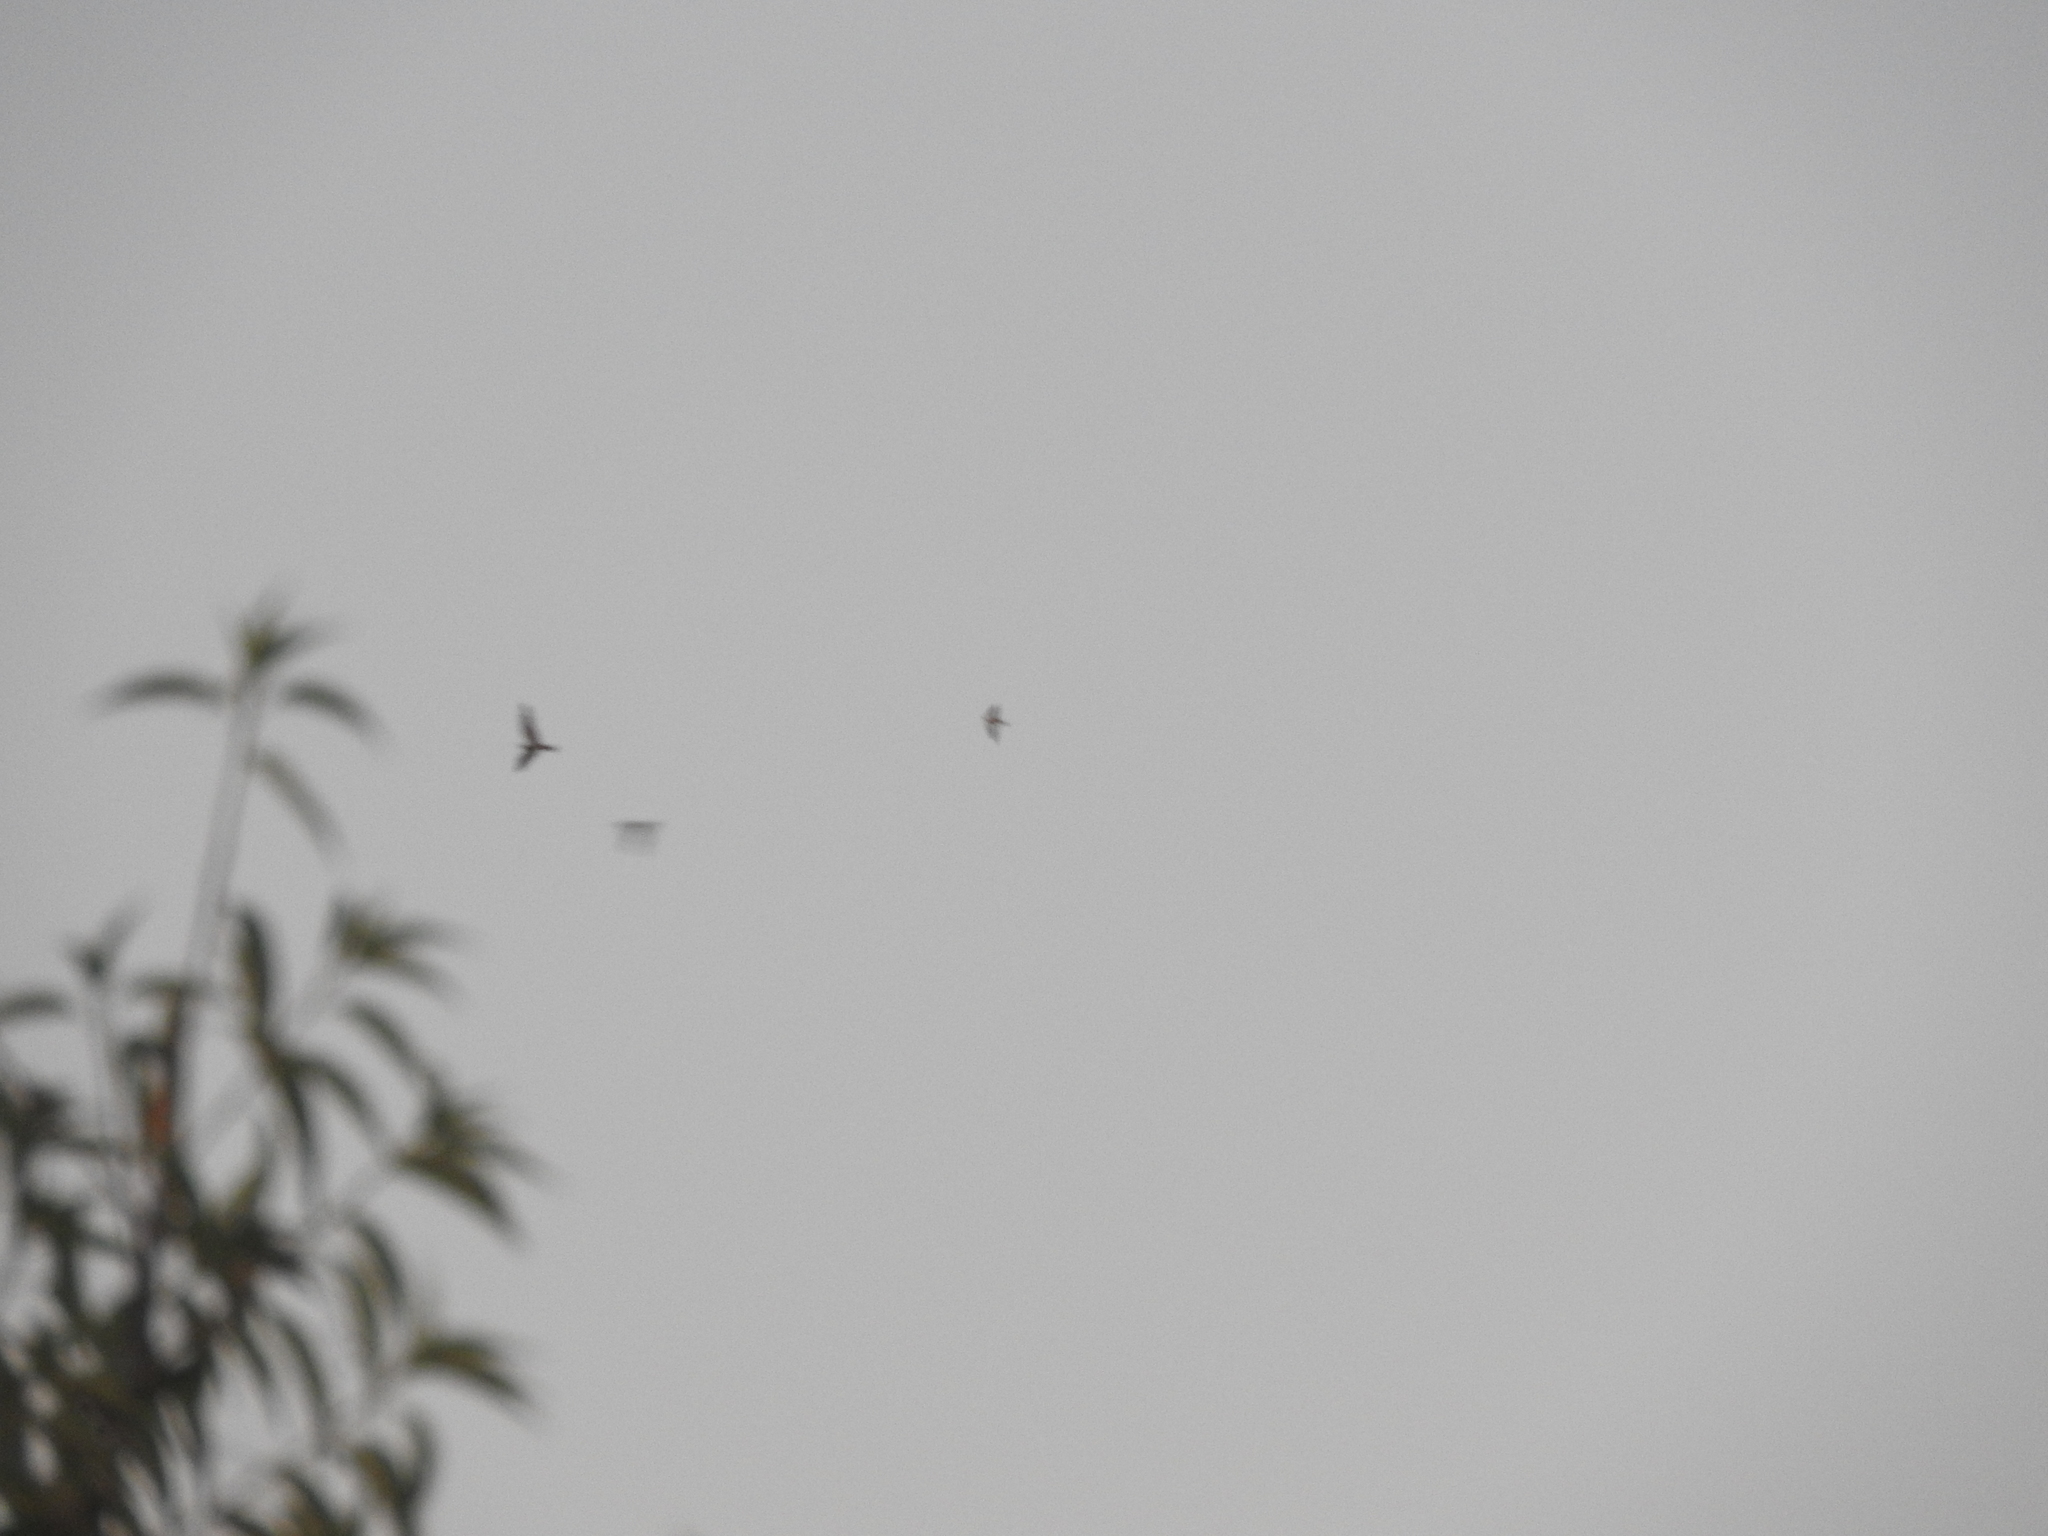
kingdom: Animalia
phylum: Chordata
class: Aves
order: Caprimulgiformes
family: Caprimulgidae
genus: Chordeiles
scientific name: Chordeiles acutipennis
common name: Lesser nighthawk
